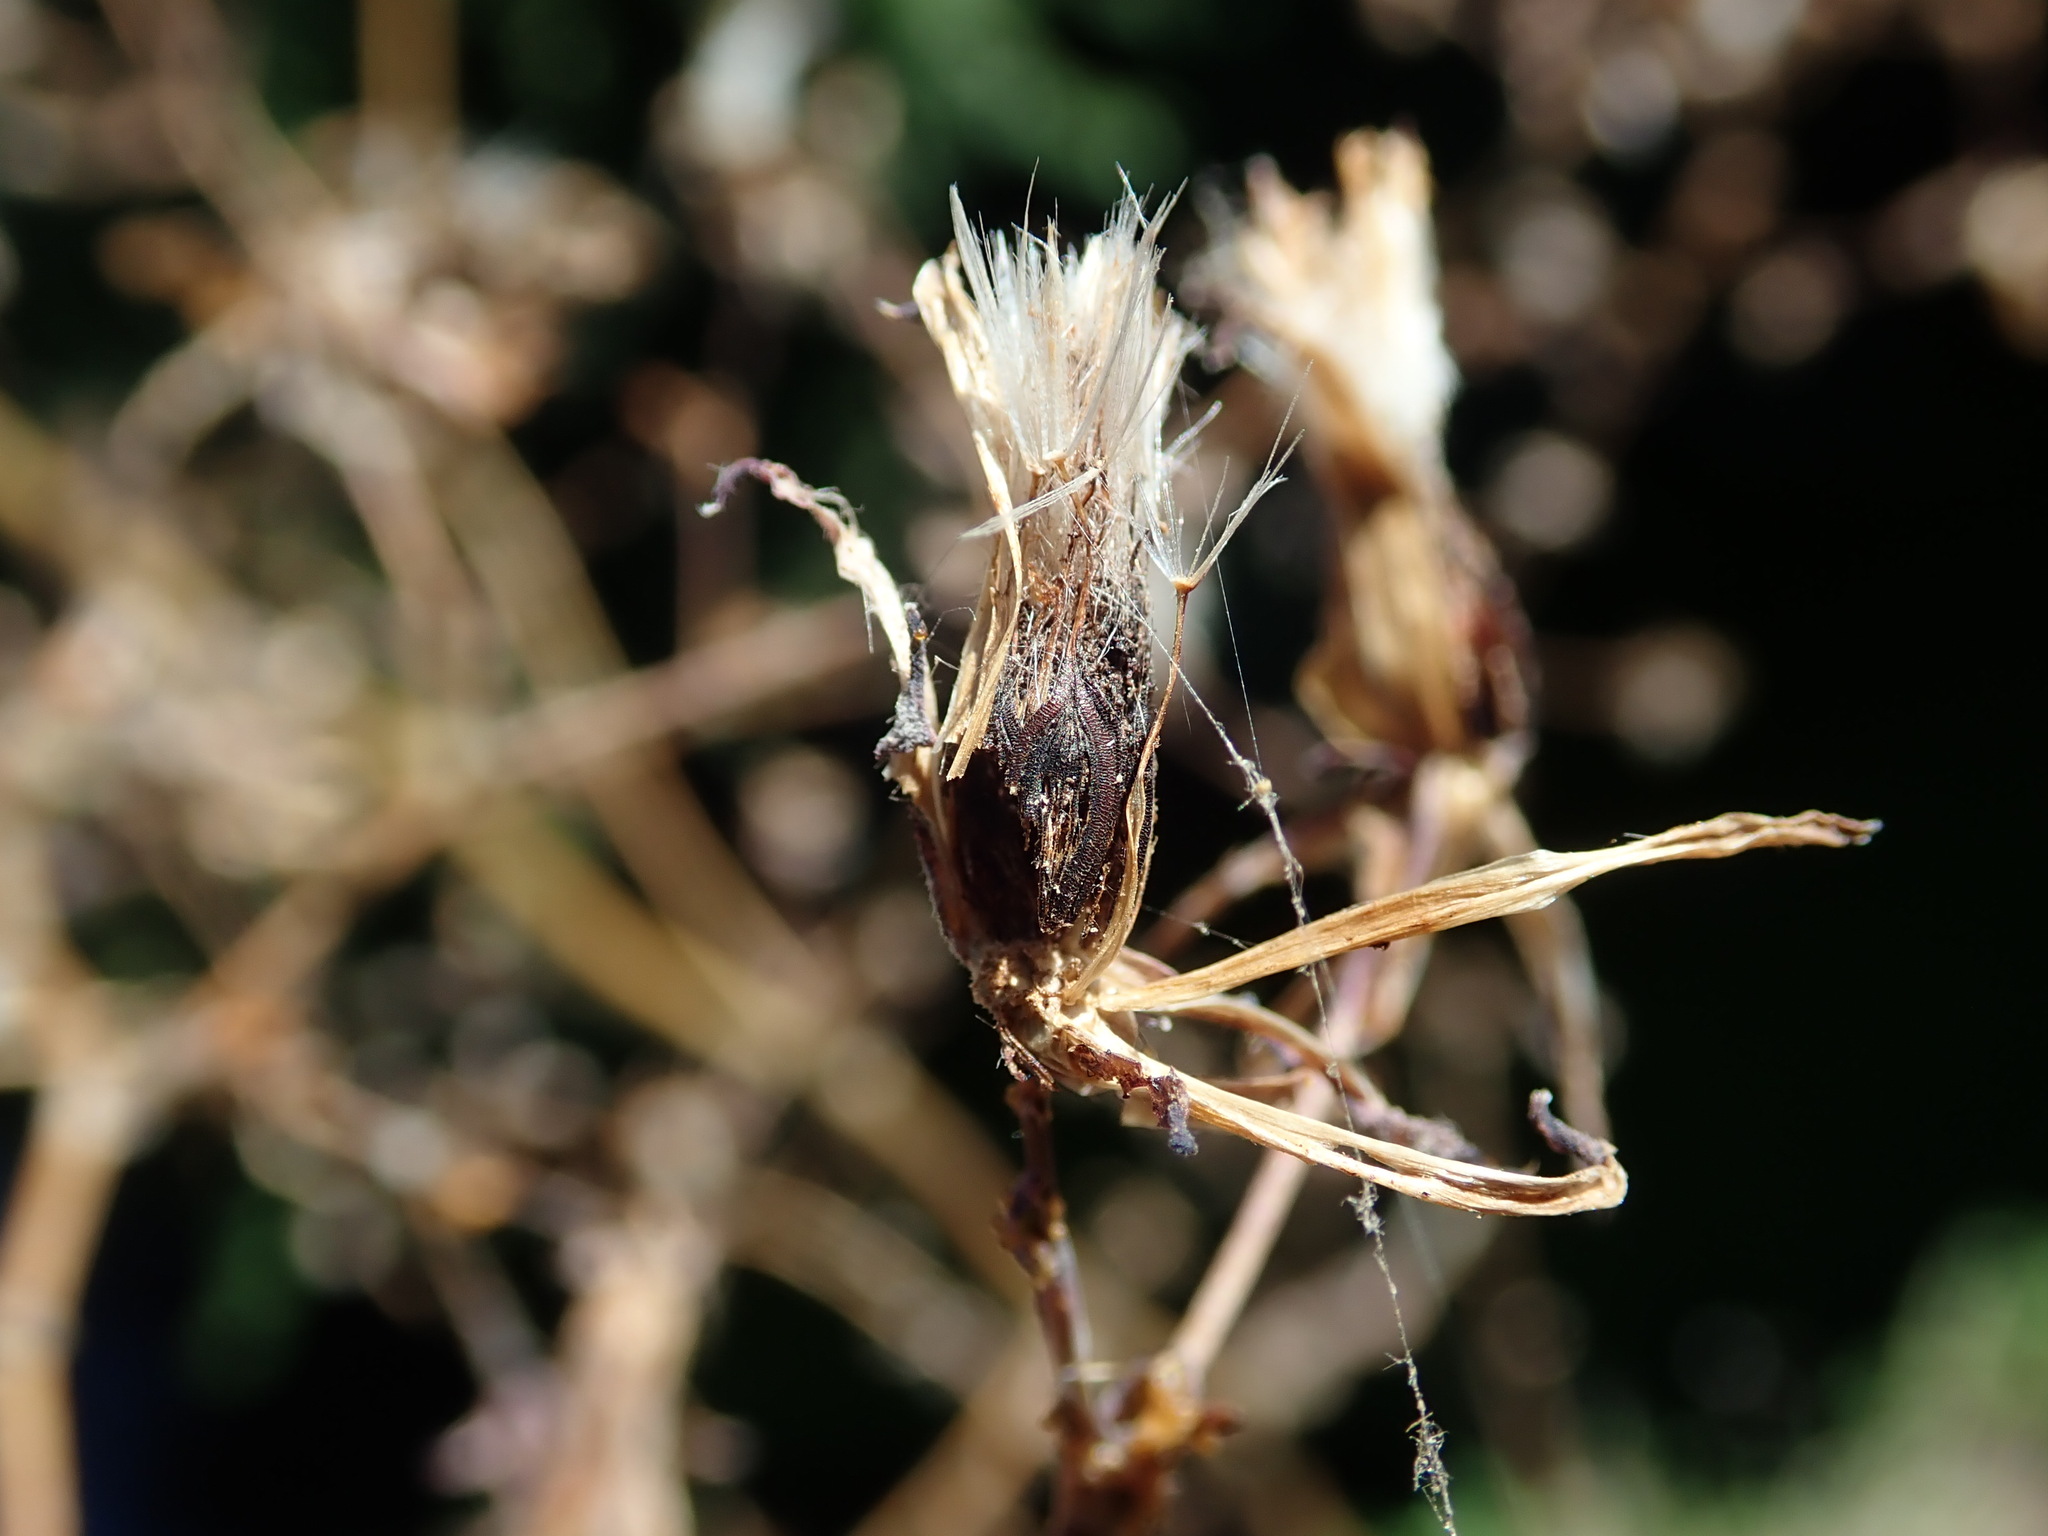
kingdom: Plantae
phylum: Tracheophyta
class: Magnoliopsida
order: Asterales
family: Asteraceae
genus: Lactuca
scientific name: Lactuca virosa
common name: Great lettuce
